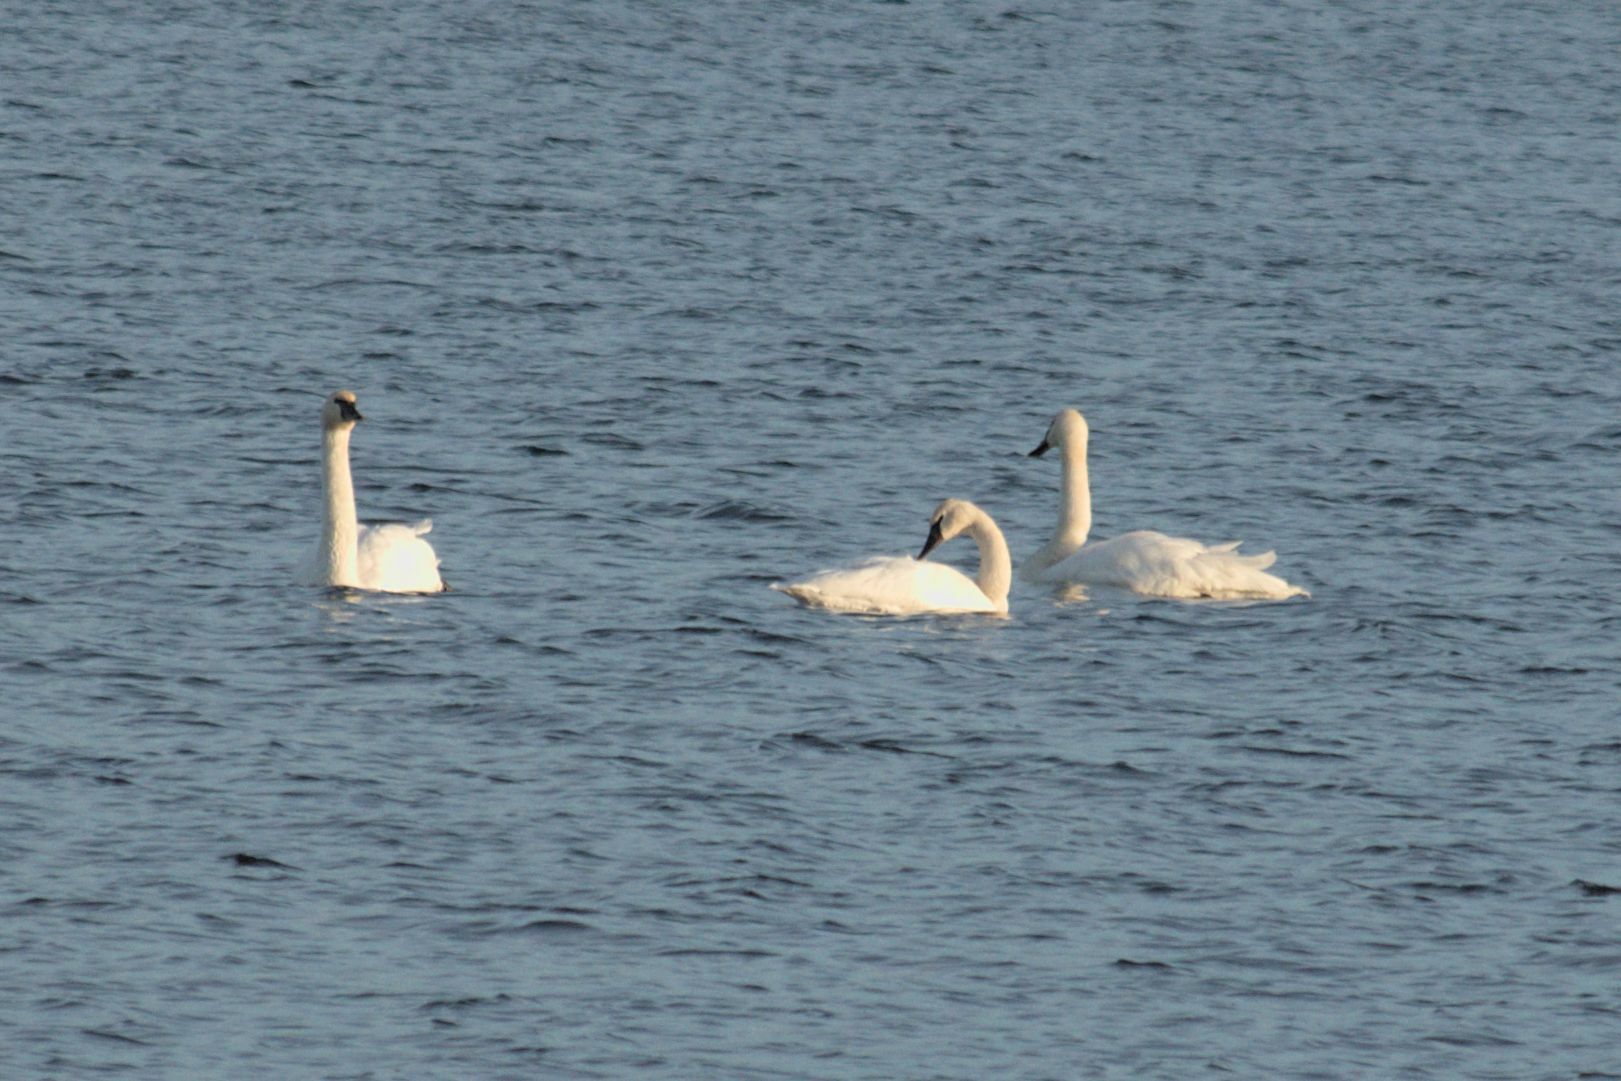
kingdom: Animalia
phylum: Chordata
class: Aves
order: Anseriformes
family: Anatidae
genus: Cygnus
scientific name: Cygnus buccinator
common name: Trumpeter swan
